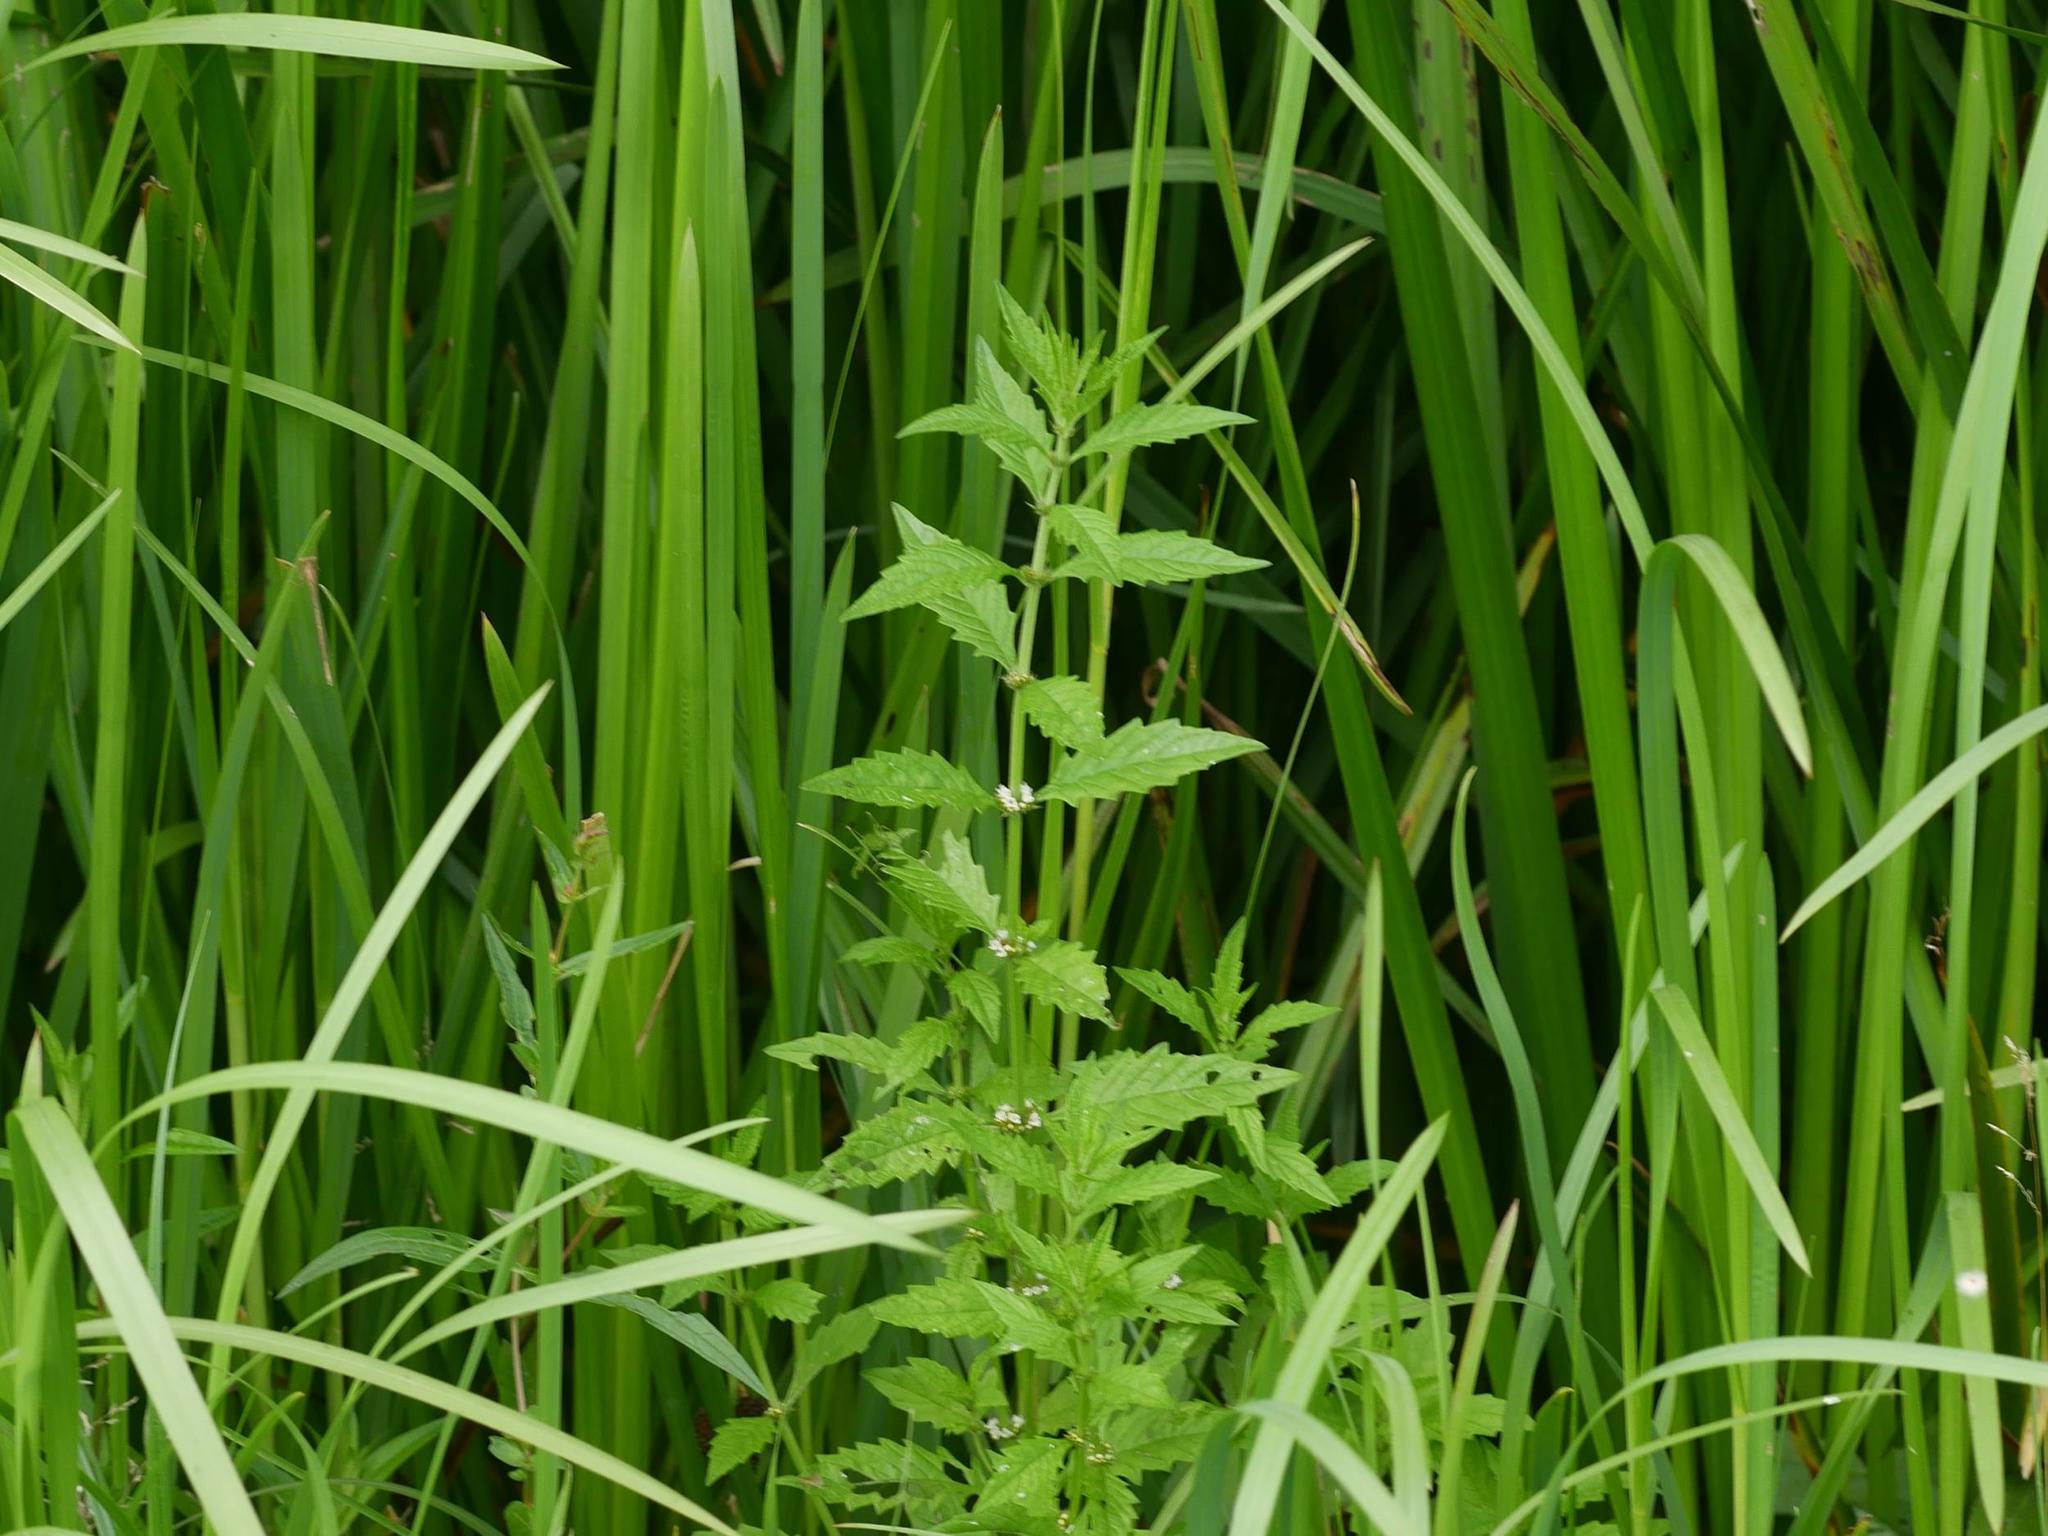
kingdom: Plantae
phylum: Tracheophyta
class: Magnoliopsida
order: Lamiales
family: Lamiaceae
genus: Lycopus
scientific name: Lycopus europaeus
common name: European bugleweed
